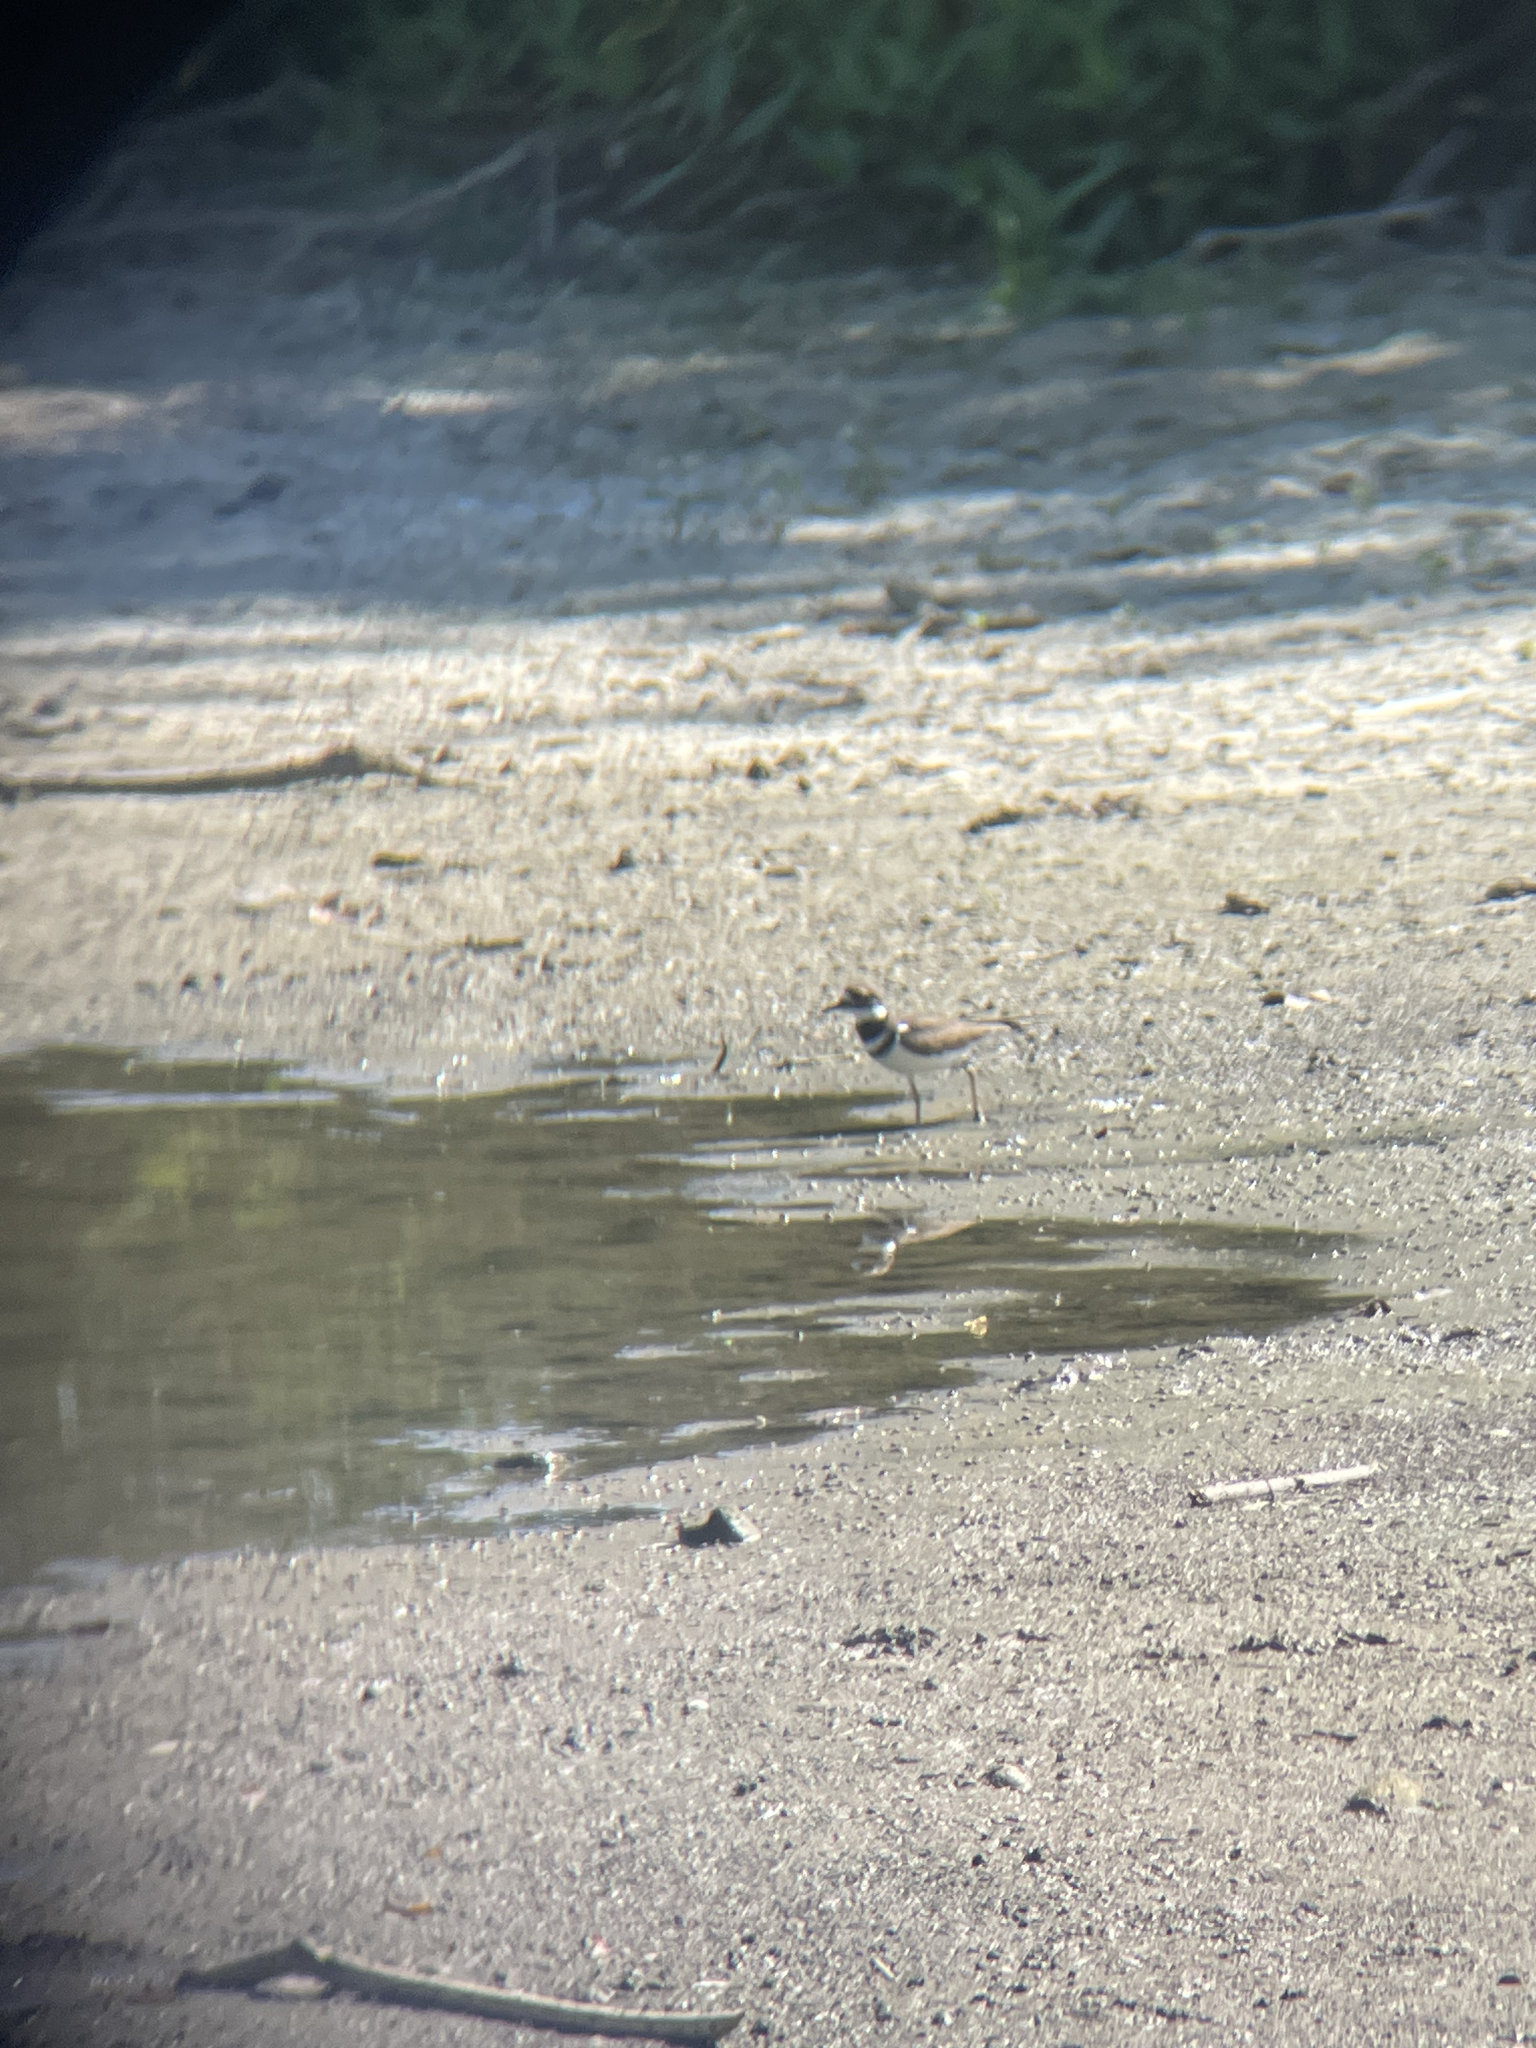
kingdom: Animalia
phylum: Chordata
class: Aves
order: Charadriiformes
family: Charadriidae
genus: Charadrius
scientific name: Charadrius vociferus
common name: Killdeer
